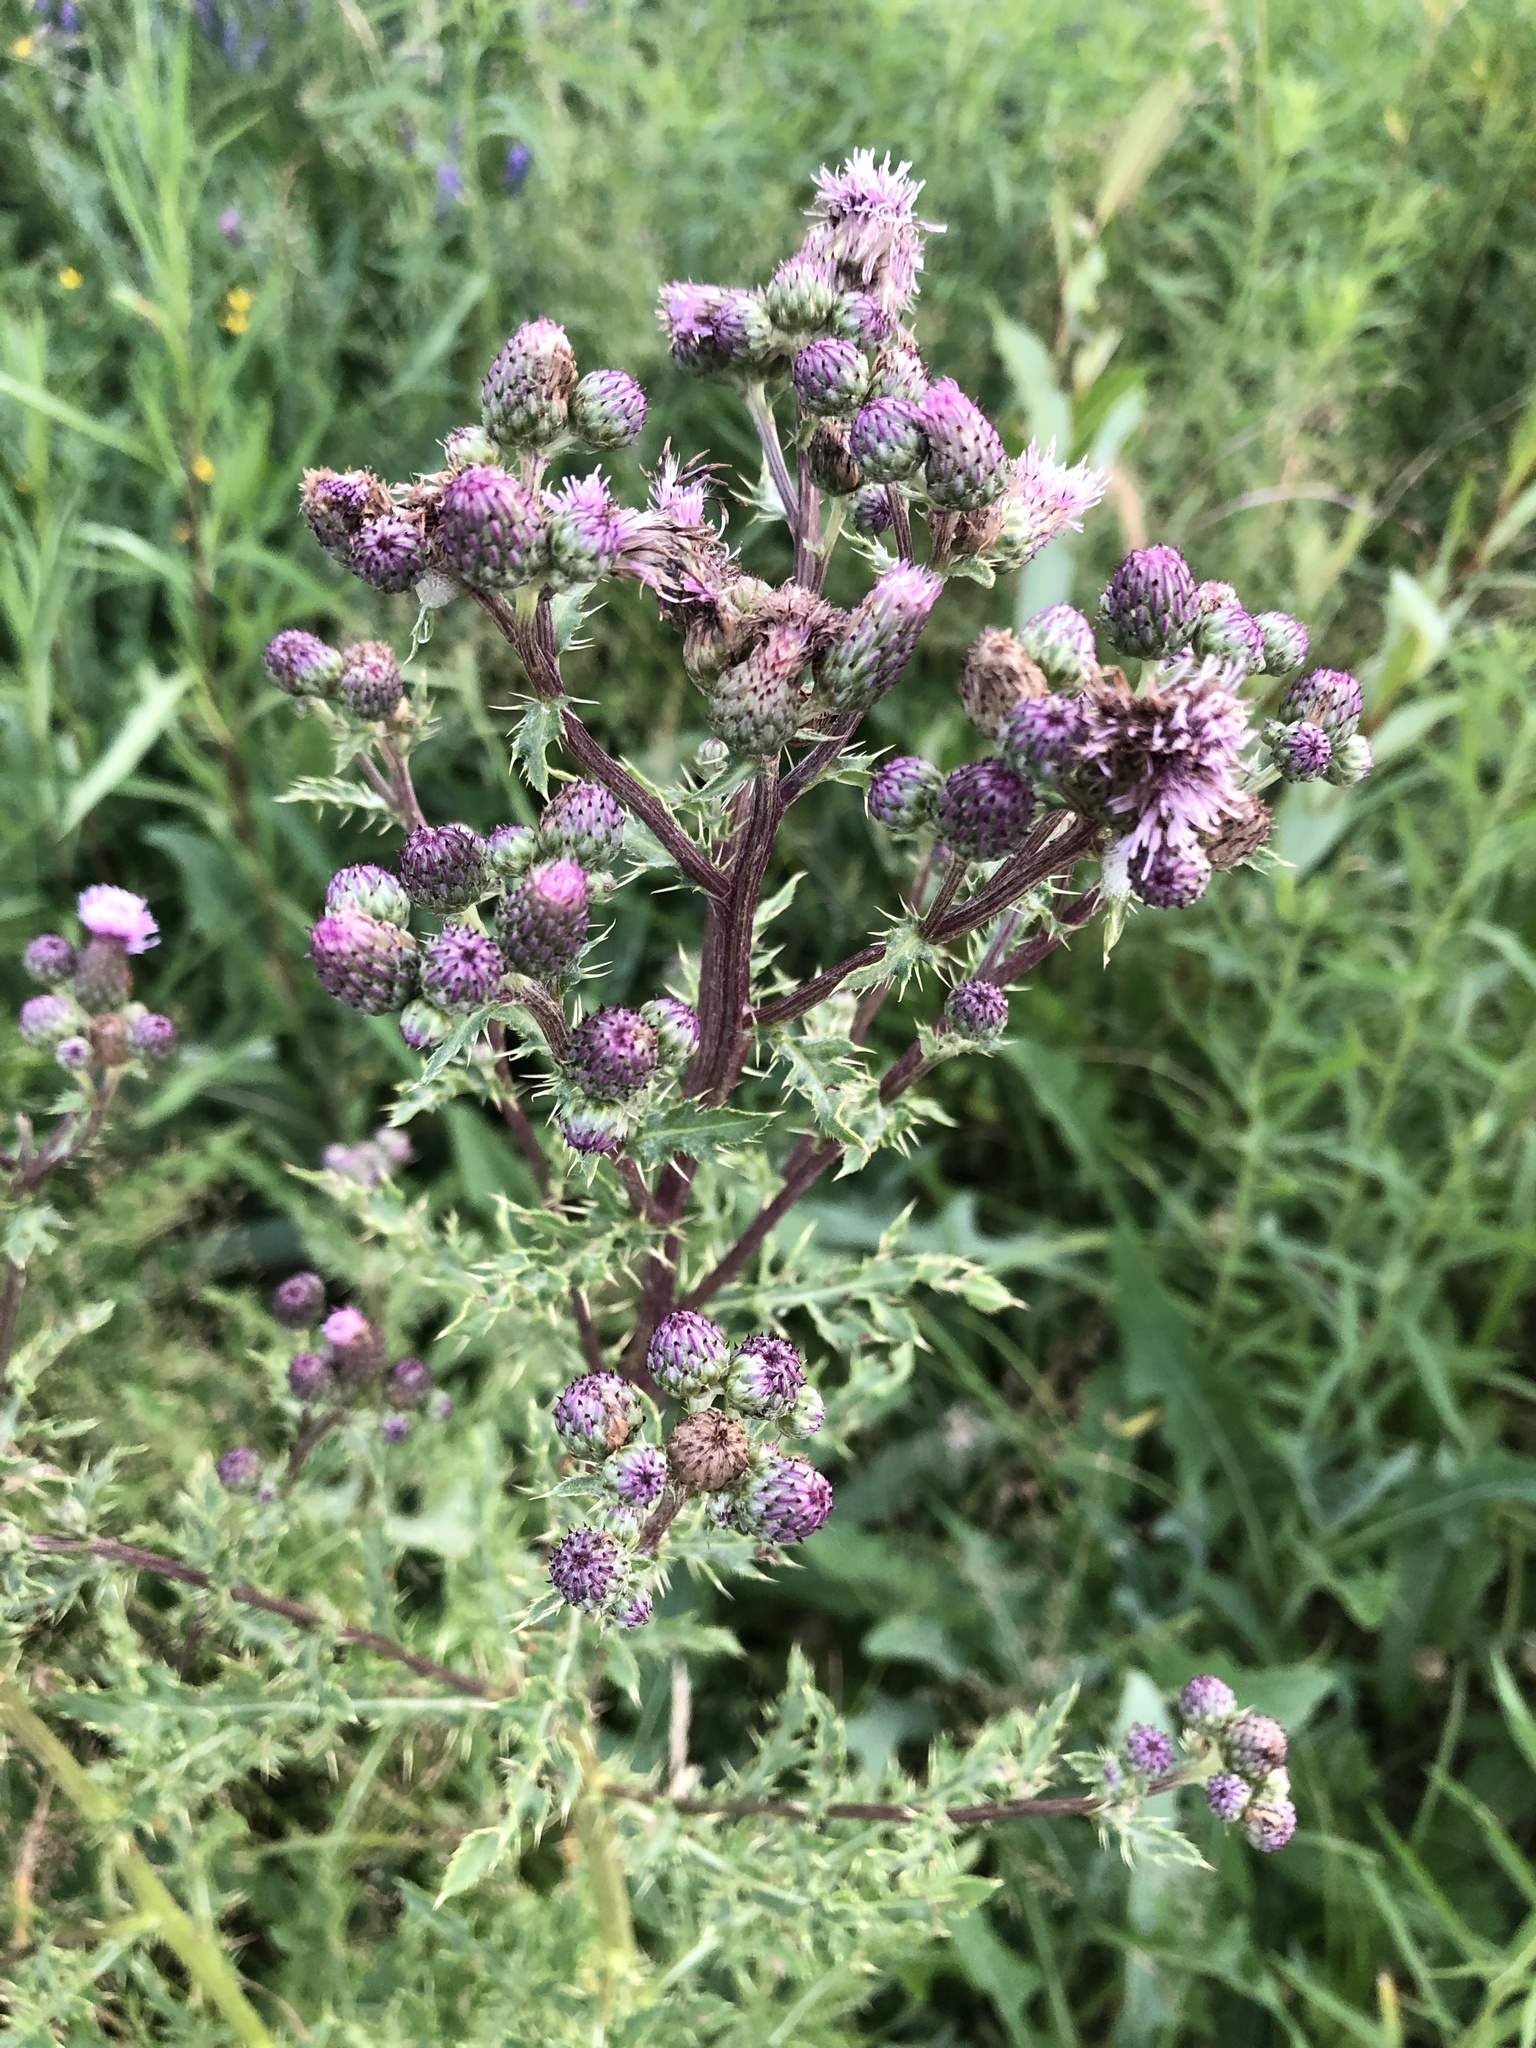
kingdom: Plantae
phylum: Tracheophyta
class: Magnoliopsida
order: Asterales
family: Asteraceae
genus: Cirsium
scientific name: Cirsium arvense
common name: Creeping thistle
